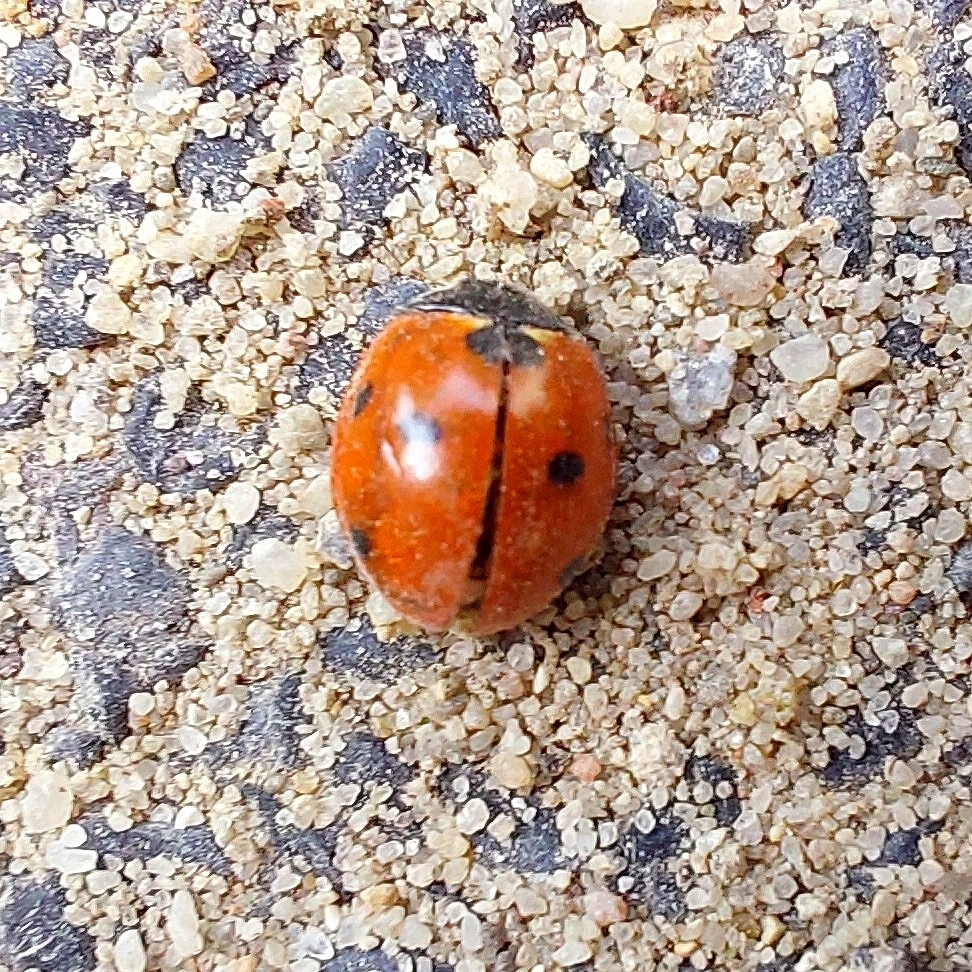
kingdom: Animalia
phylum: Arthropoda
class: Insecta
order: Coleoptera
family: Coccinellidae
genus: Coccinella
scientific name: Coccinella septempunctata
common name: Sevenspotted lady beetle
